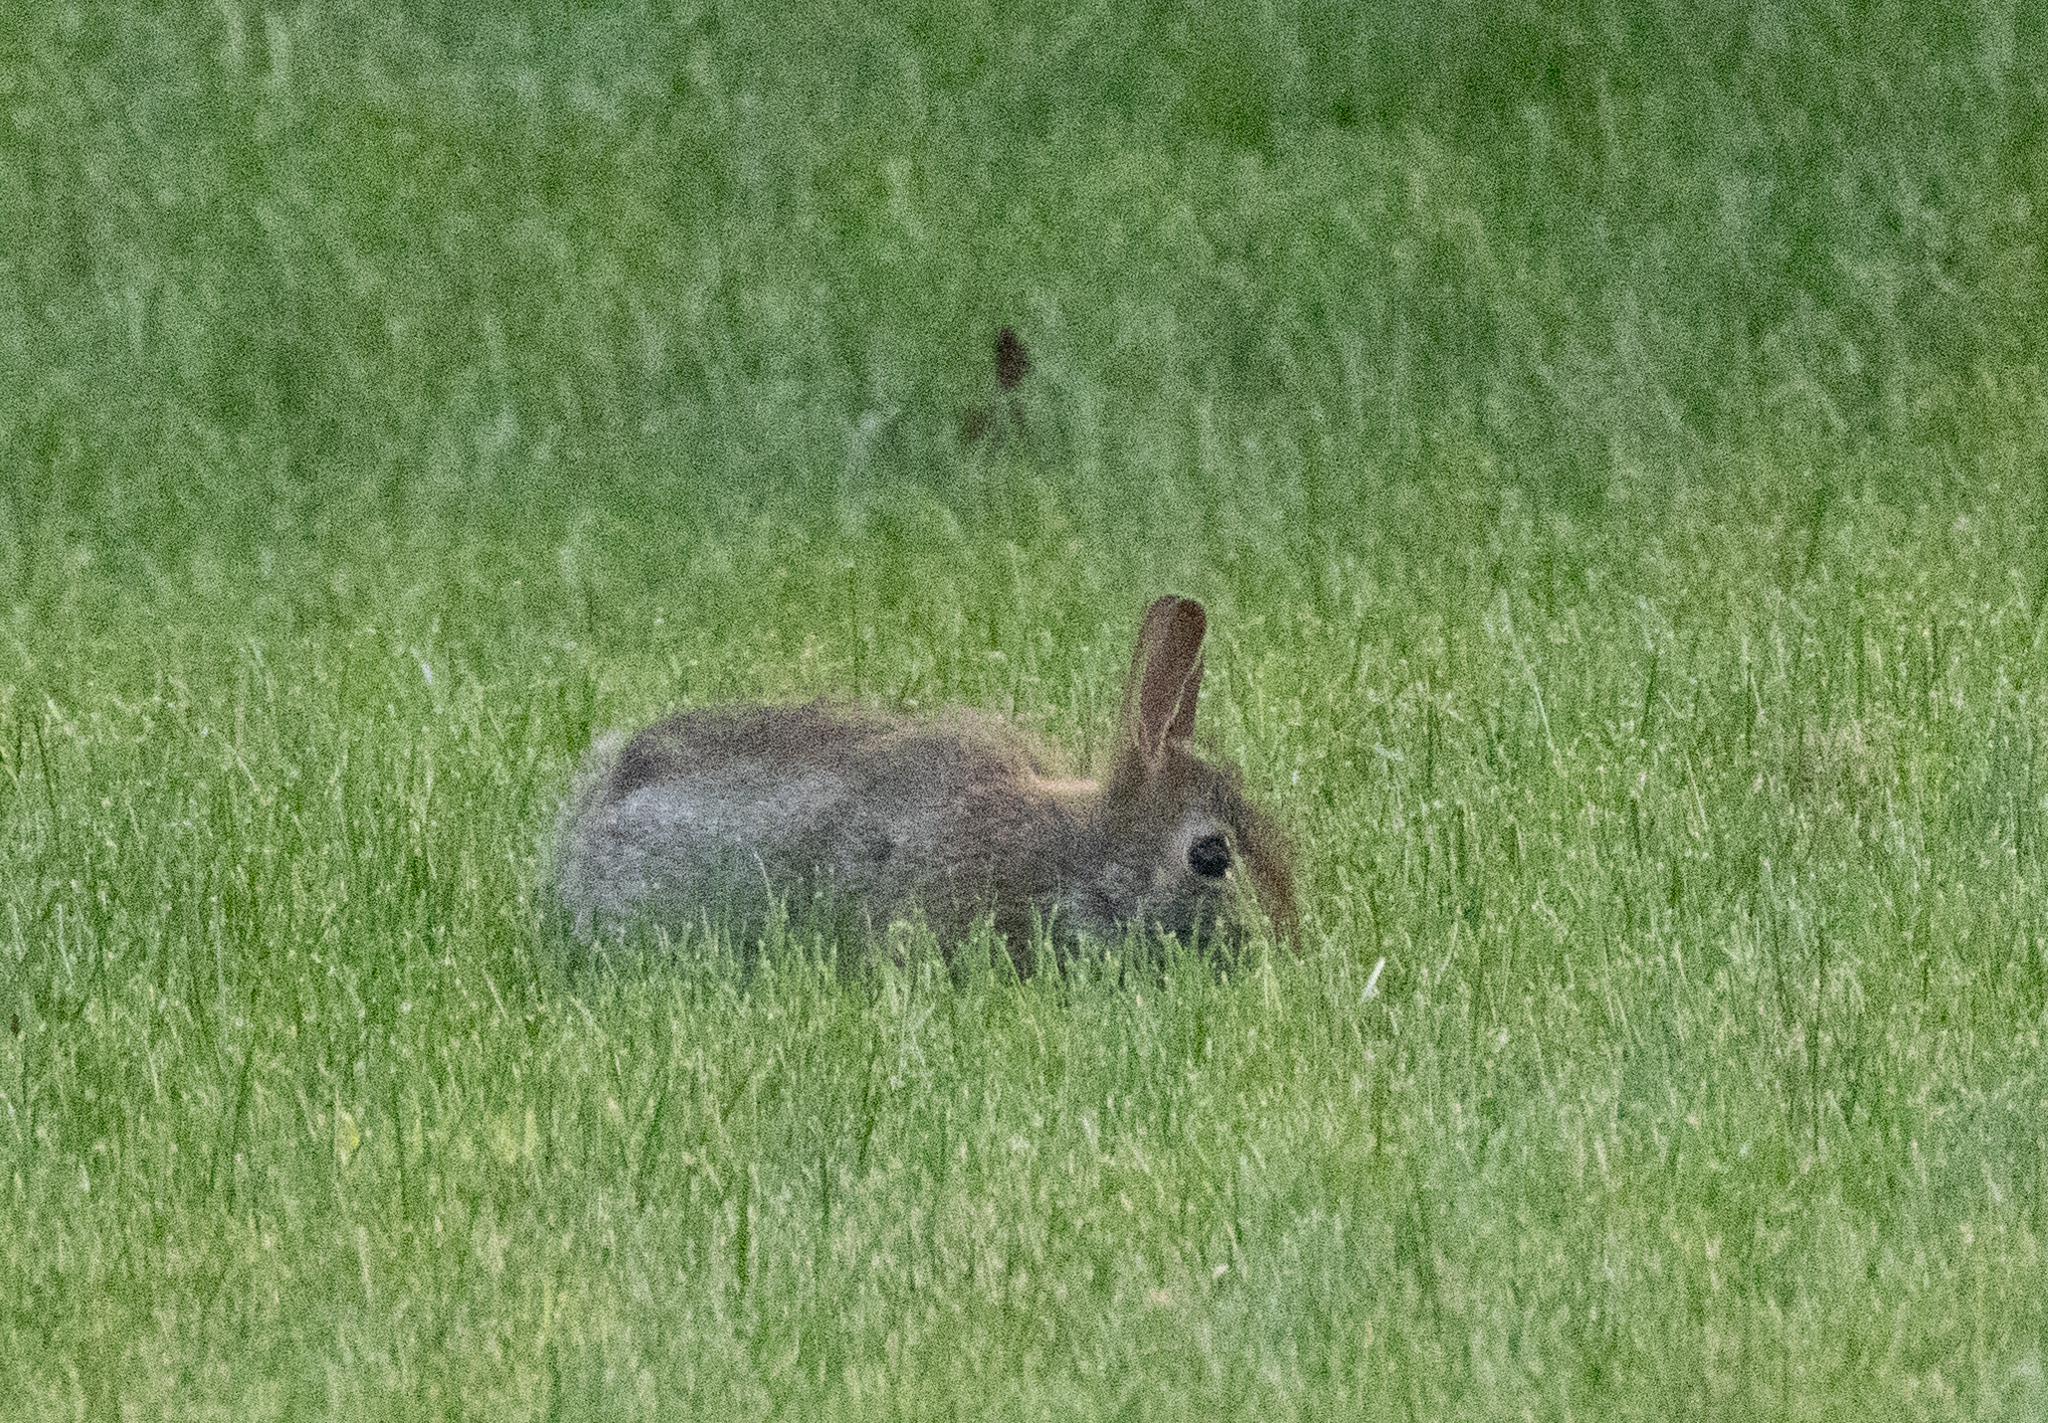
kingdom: Animalia
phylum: Chordata
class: Mammalia
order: Lagomorpha
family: Leporidae
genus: Sylvilagus
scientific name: Sylvilagus floridanus
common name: Eastern cottontail
